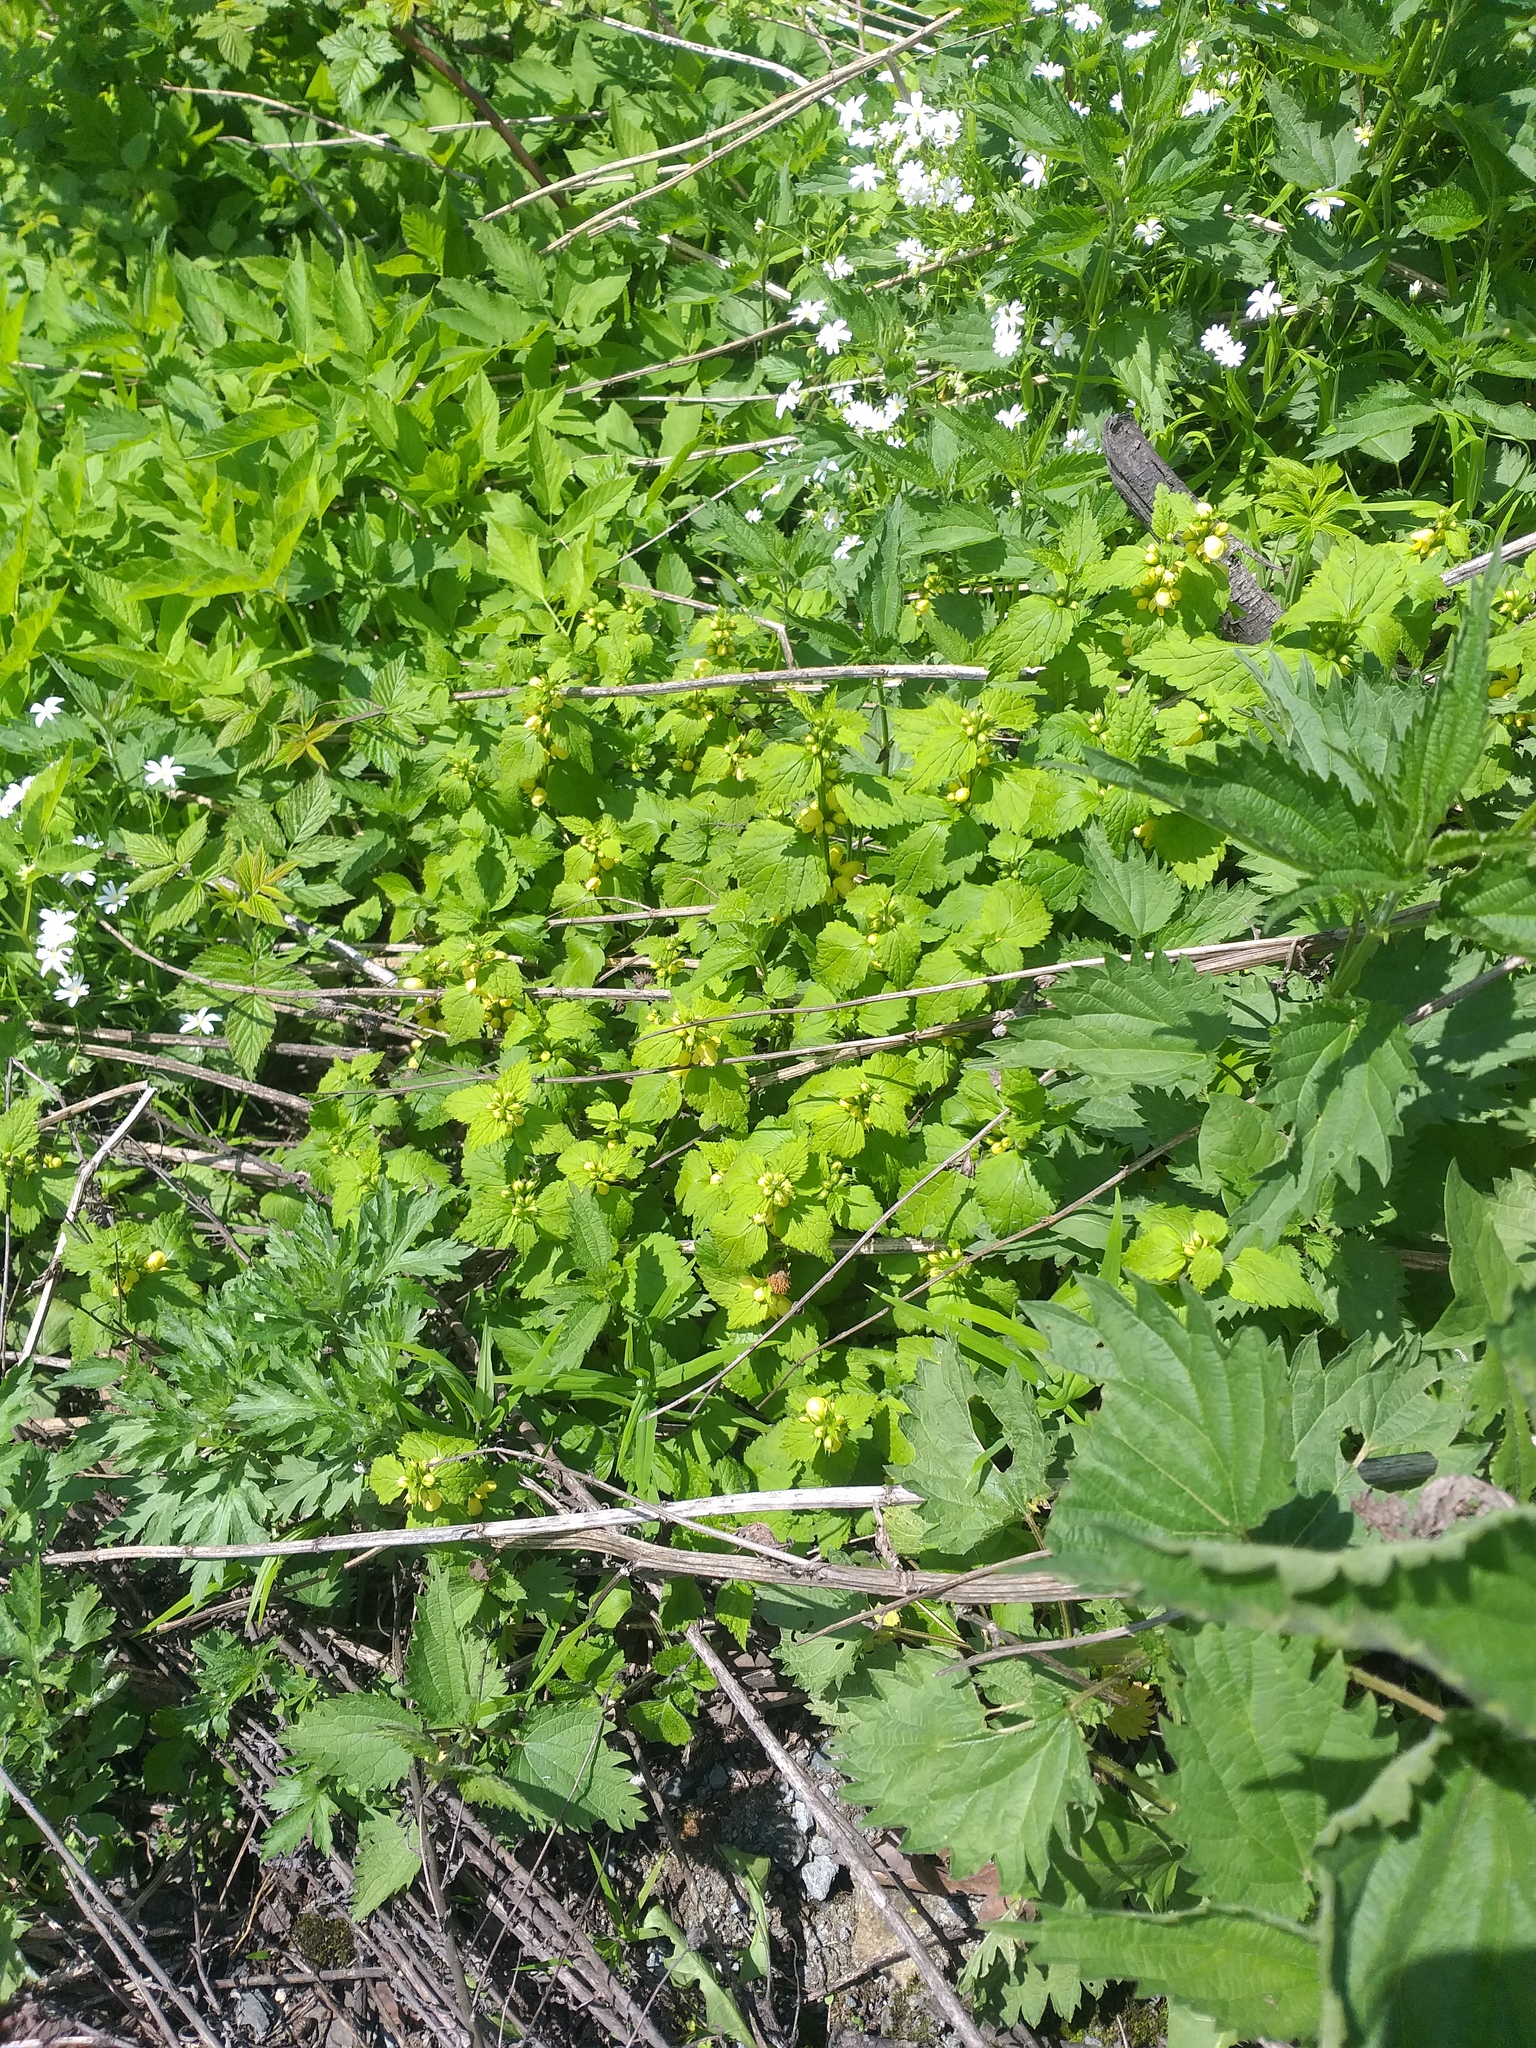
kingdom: Plantae
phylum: Tracheophyta
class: Magnoliopsida
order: Lamiales
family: Lamiaceae
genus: Lamium
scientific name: Lamium galeobdolon
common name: Yellow archangel
